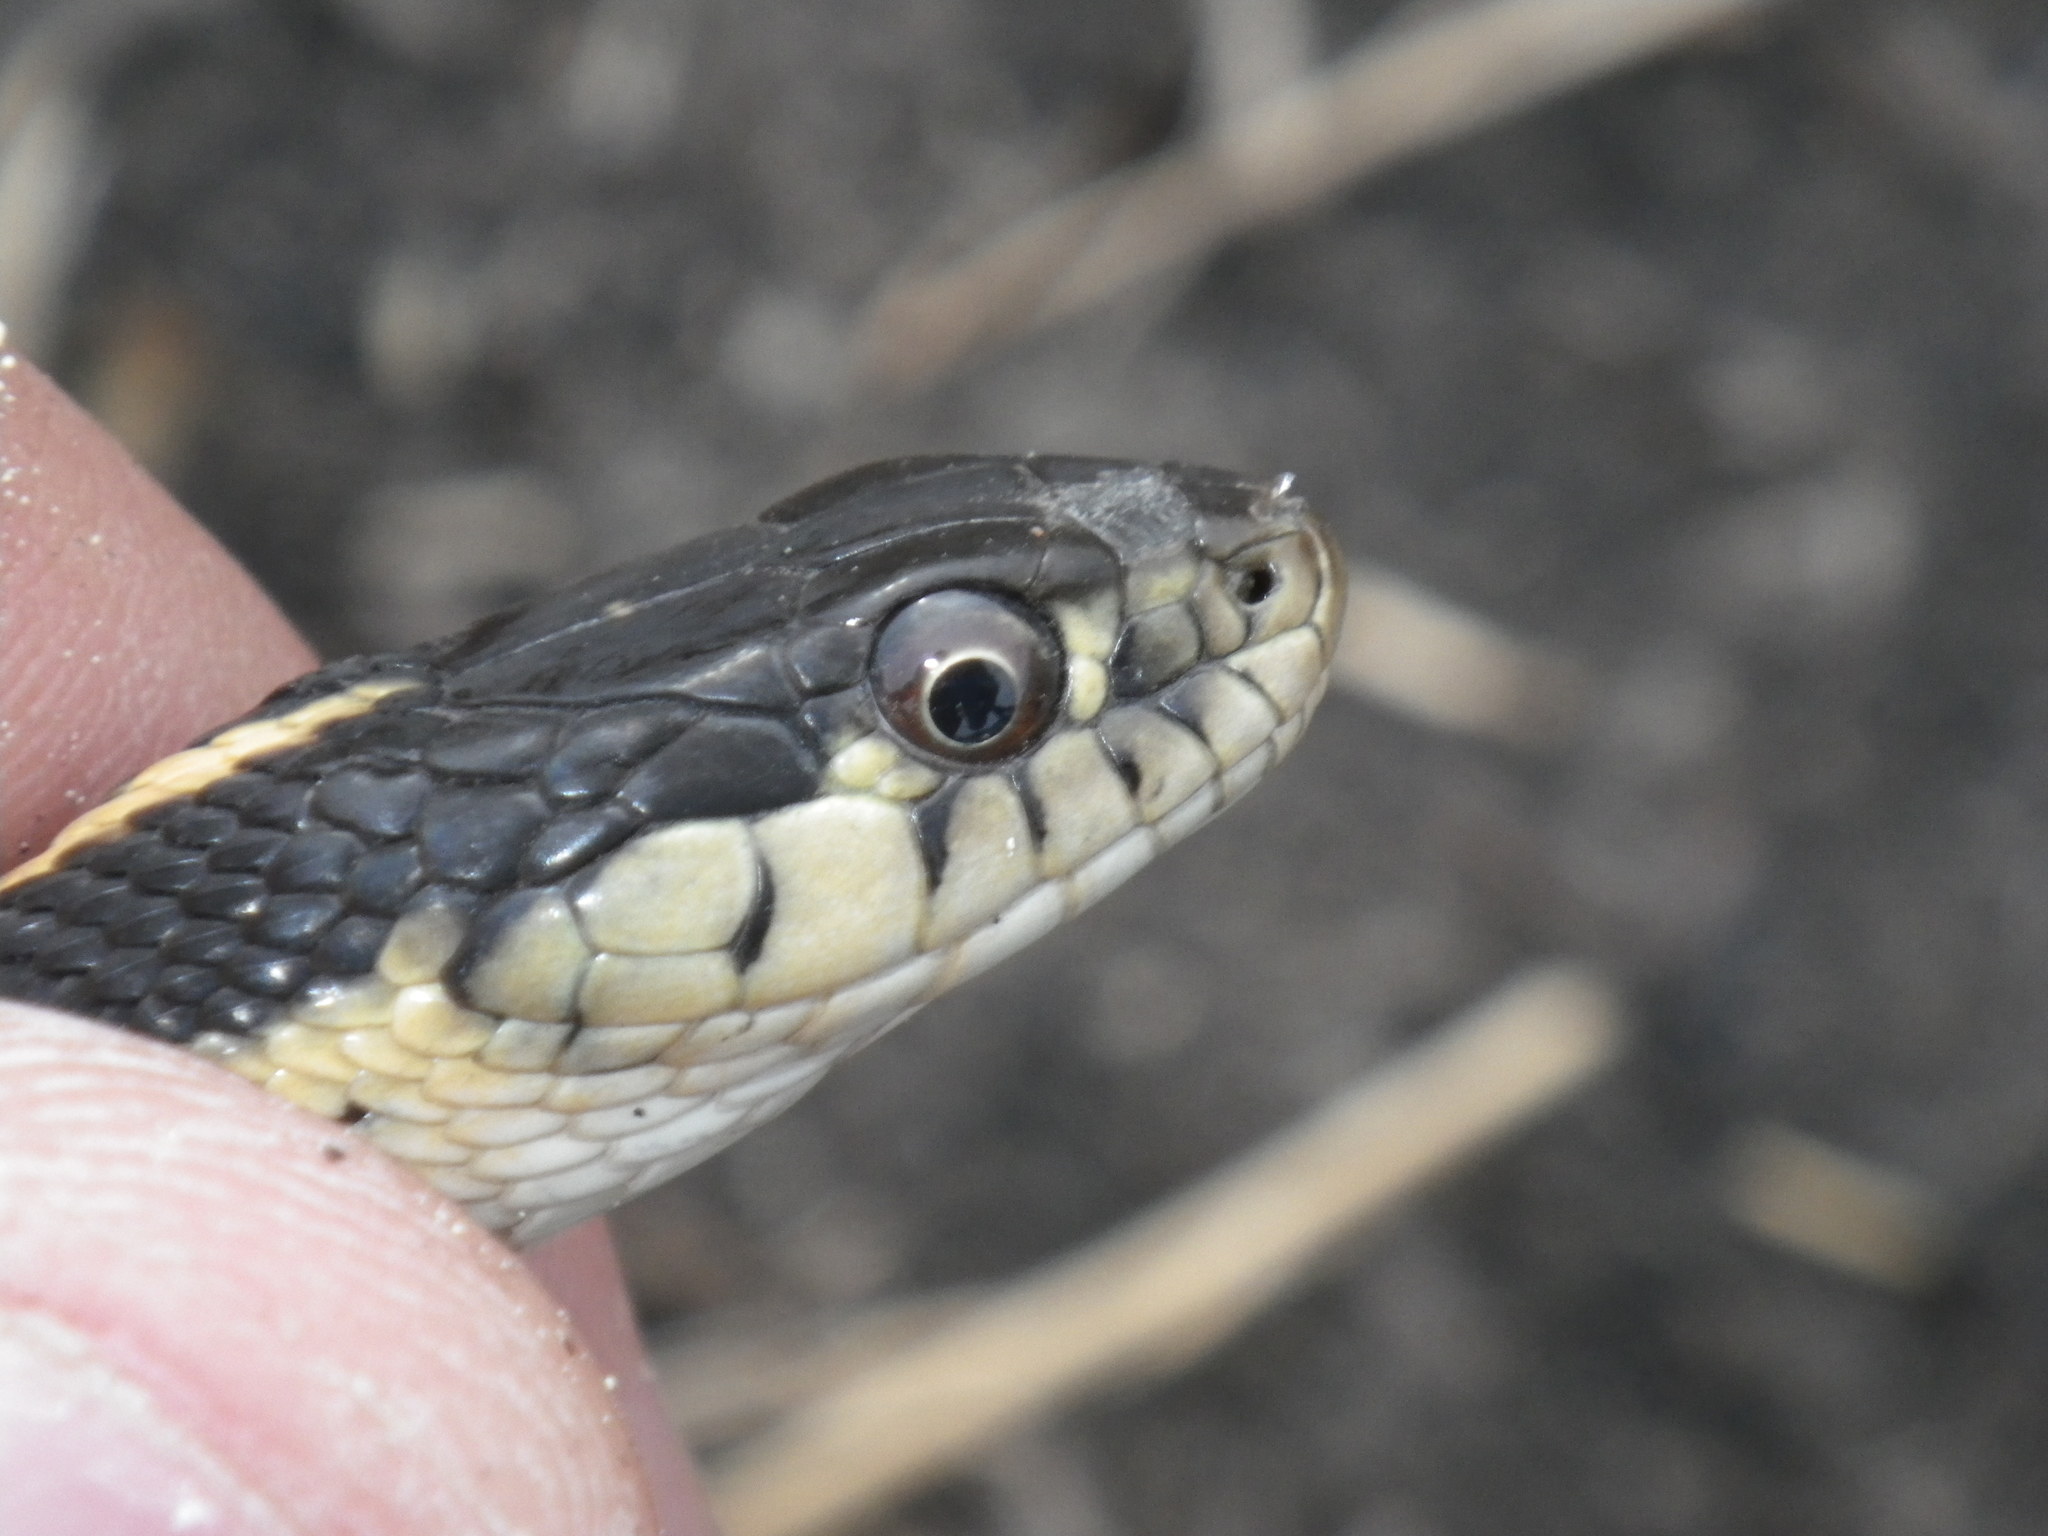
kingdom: Animalia
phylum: Chordata
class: Squamata
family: Colubridae
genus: Thamnophis
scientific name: Thamnophis elegans
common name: Western terrestrial garter snake
